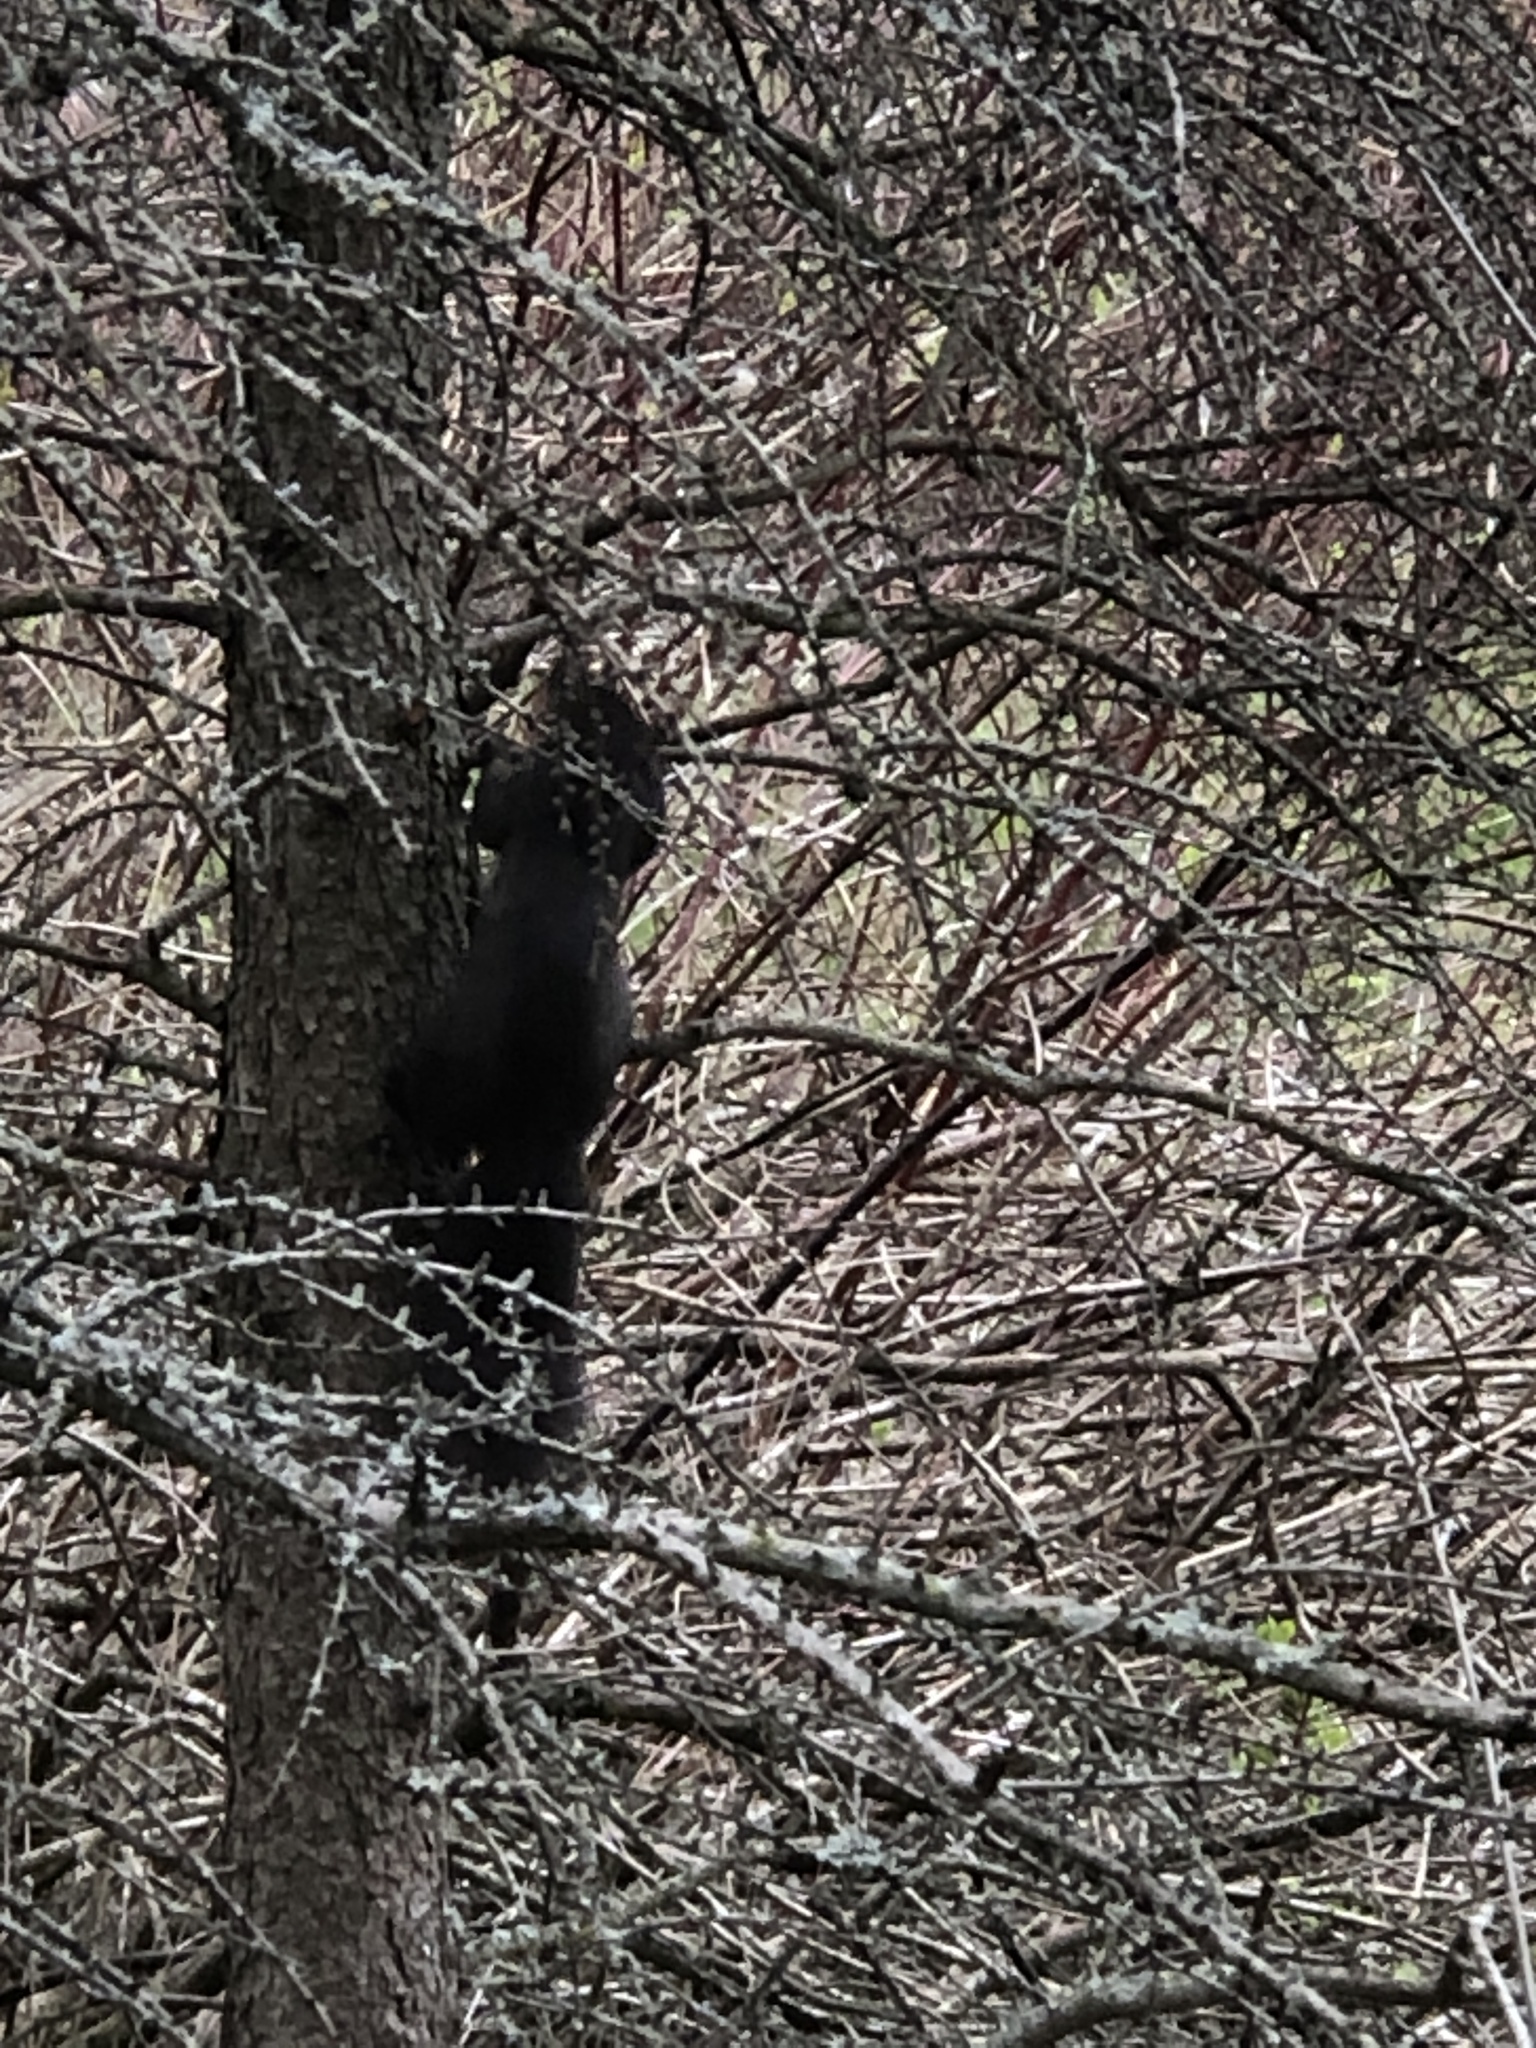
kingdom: Animalia
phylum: Chordata
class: Mammalia
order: Rodentia
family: Sciuridae
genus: Sciurus
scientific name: Sciurus carolinensis
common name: Eastern gray squirrel
